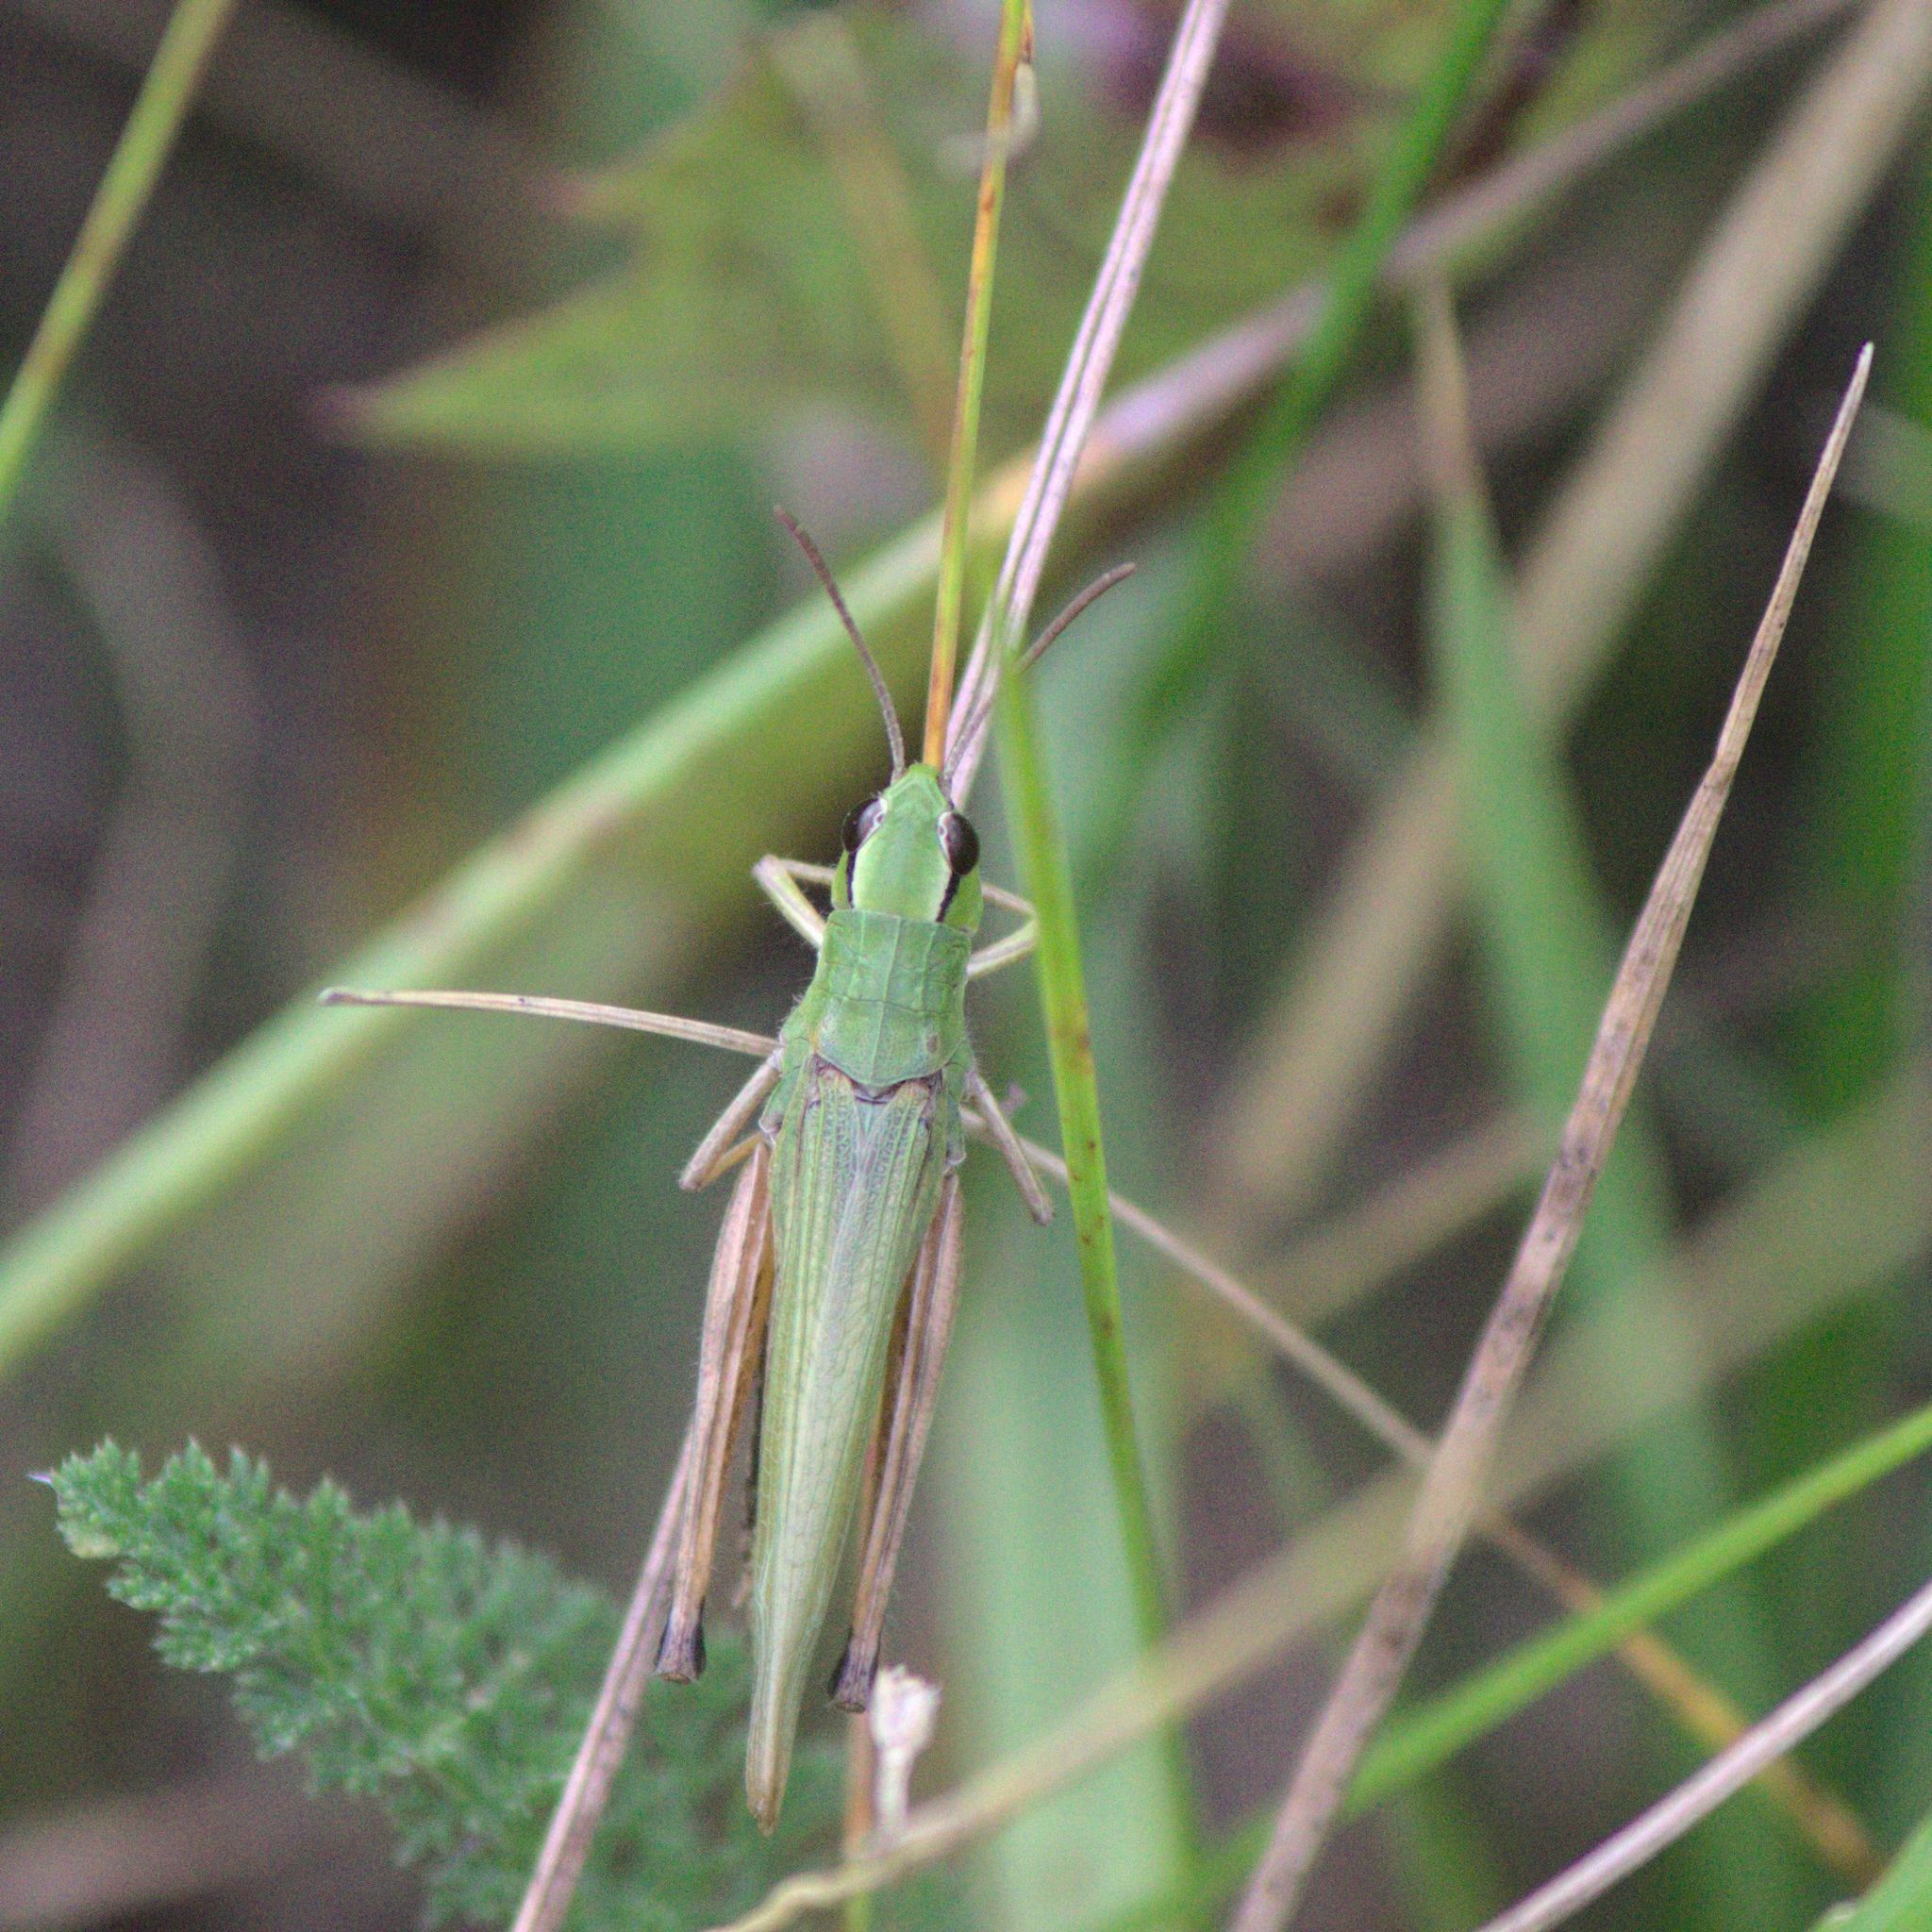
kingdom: Animalia
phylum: Arthropoda
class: Insecta
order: Orthoptera
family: Acrididae
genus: Pseudochorthippus
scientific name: Pseudochorthippus
